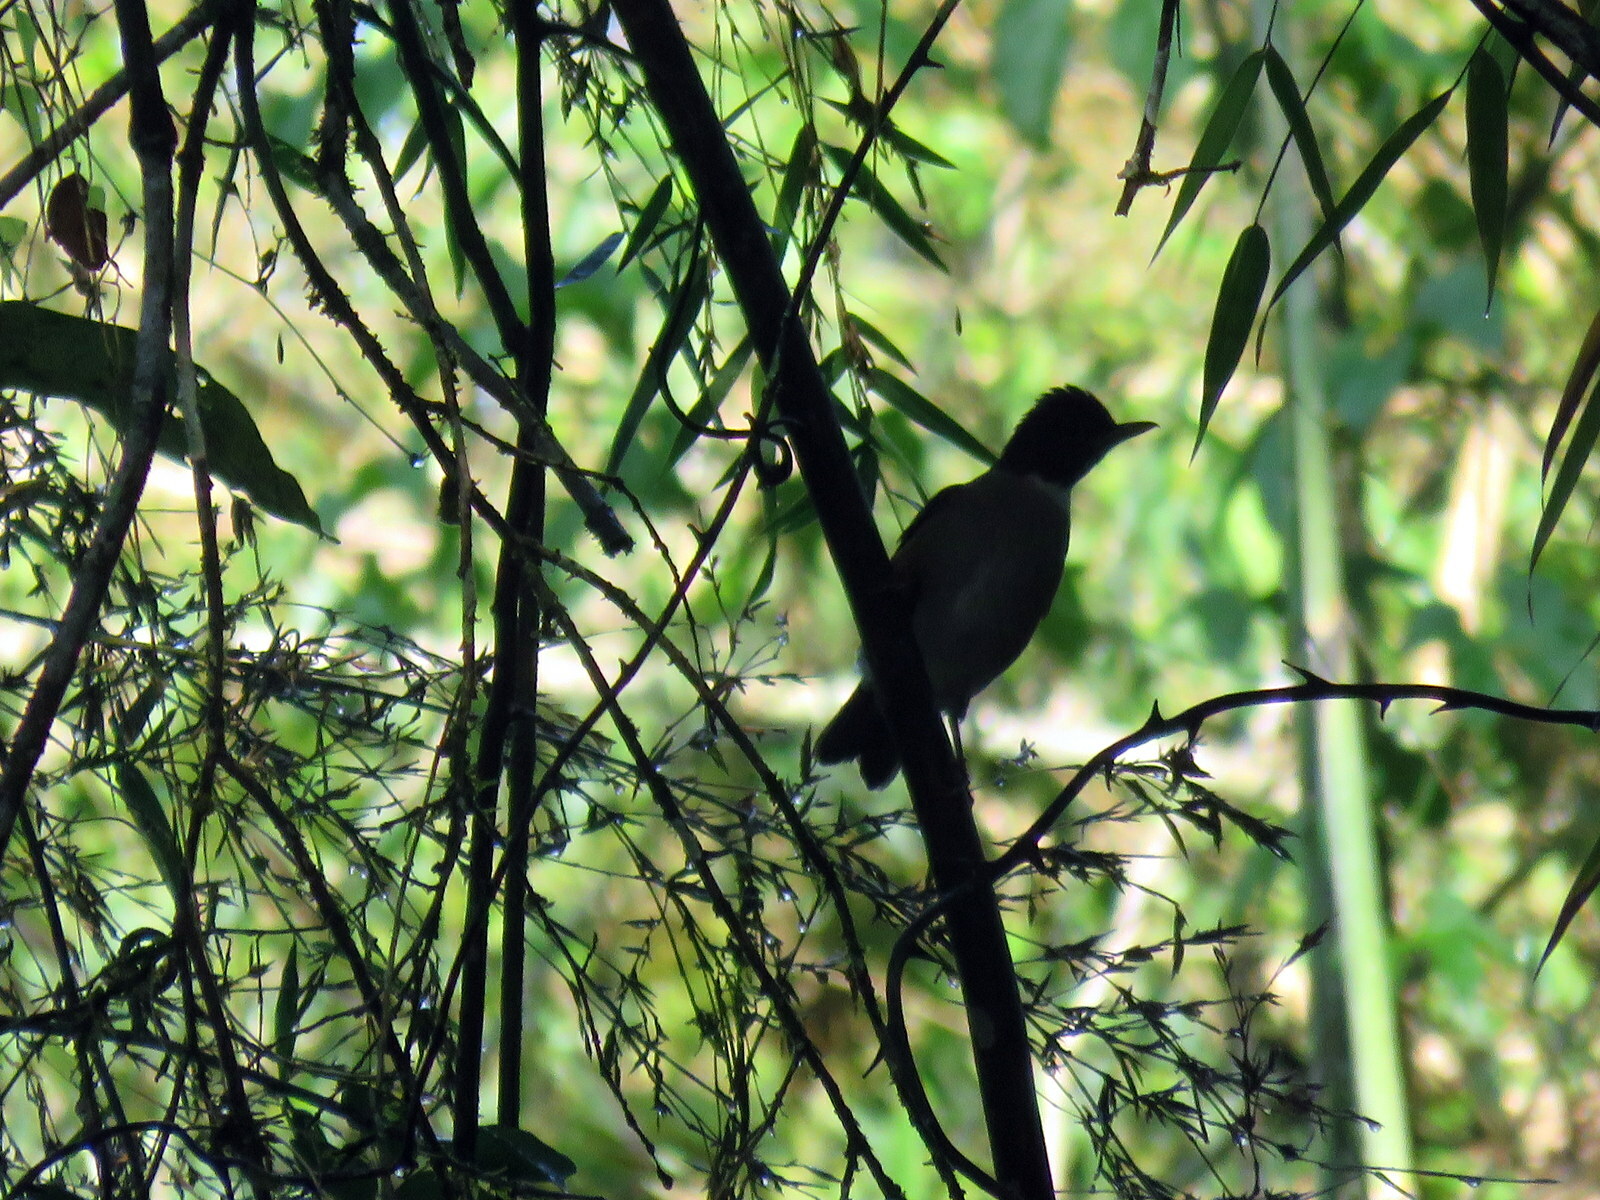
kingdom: Animalia
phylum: Chordata
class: Aves
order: Passeriformes
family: Turdidae
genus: Turdus
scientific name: Turdus albicollis
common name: White-necked thrush
